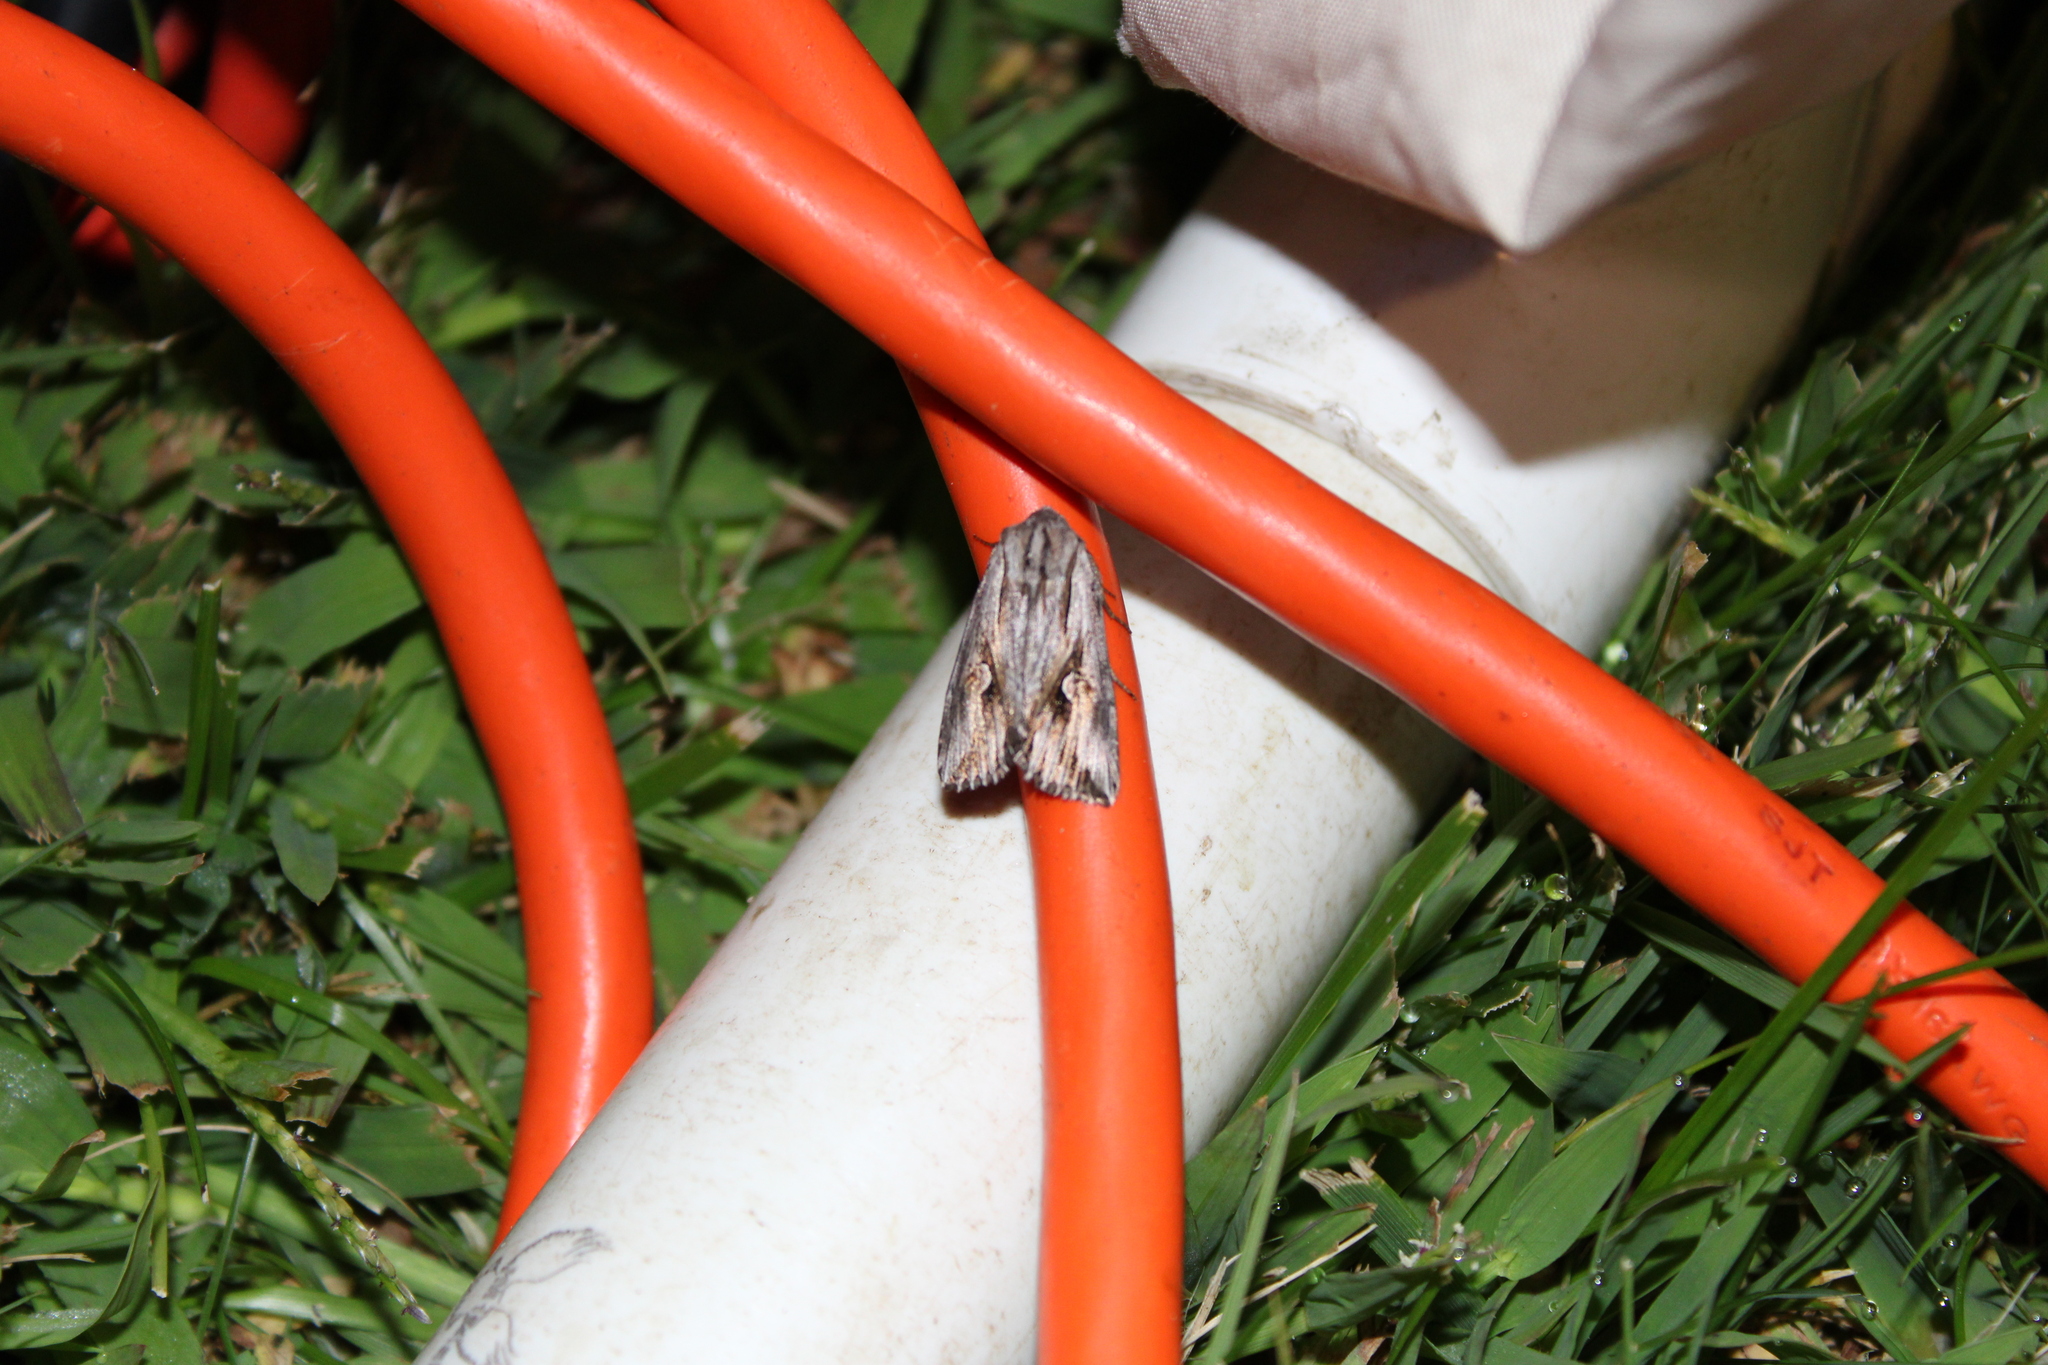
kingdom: Animalia
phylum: Arthropoda
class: Insecta
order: Lepidoptera
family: Noctuidae
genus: Nedra
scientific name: Nedra ramosula
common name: Gray half-spot
